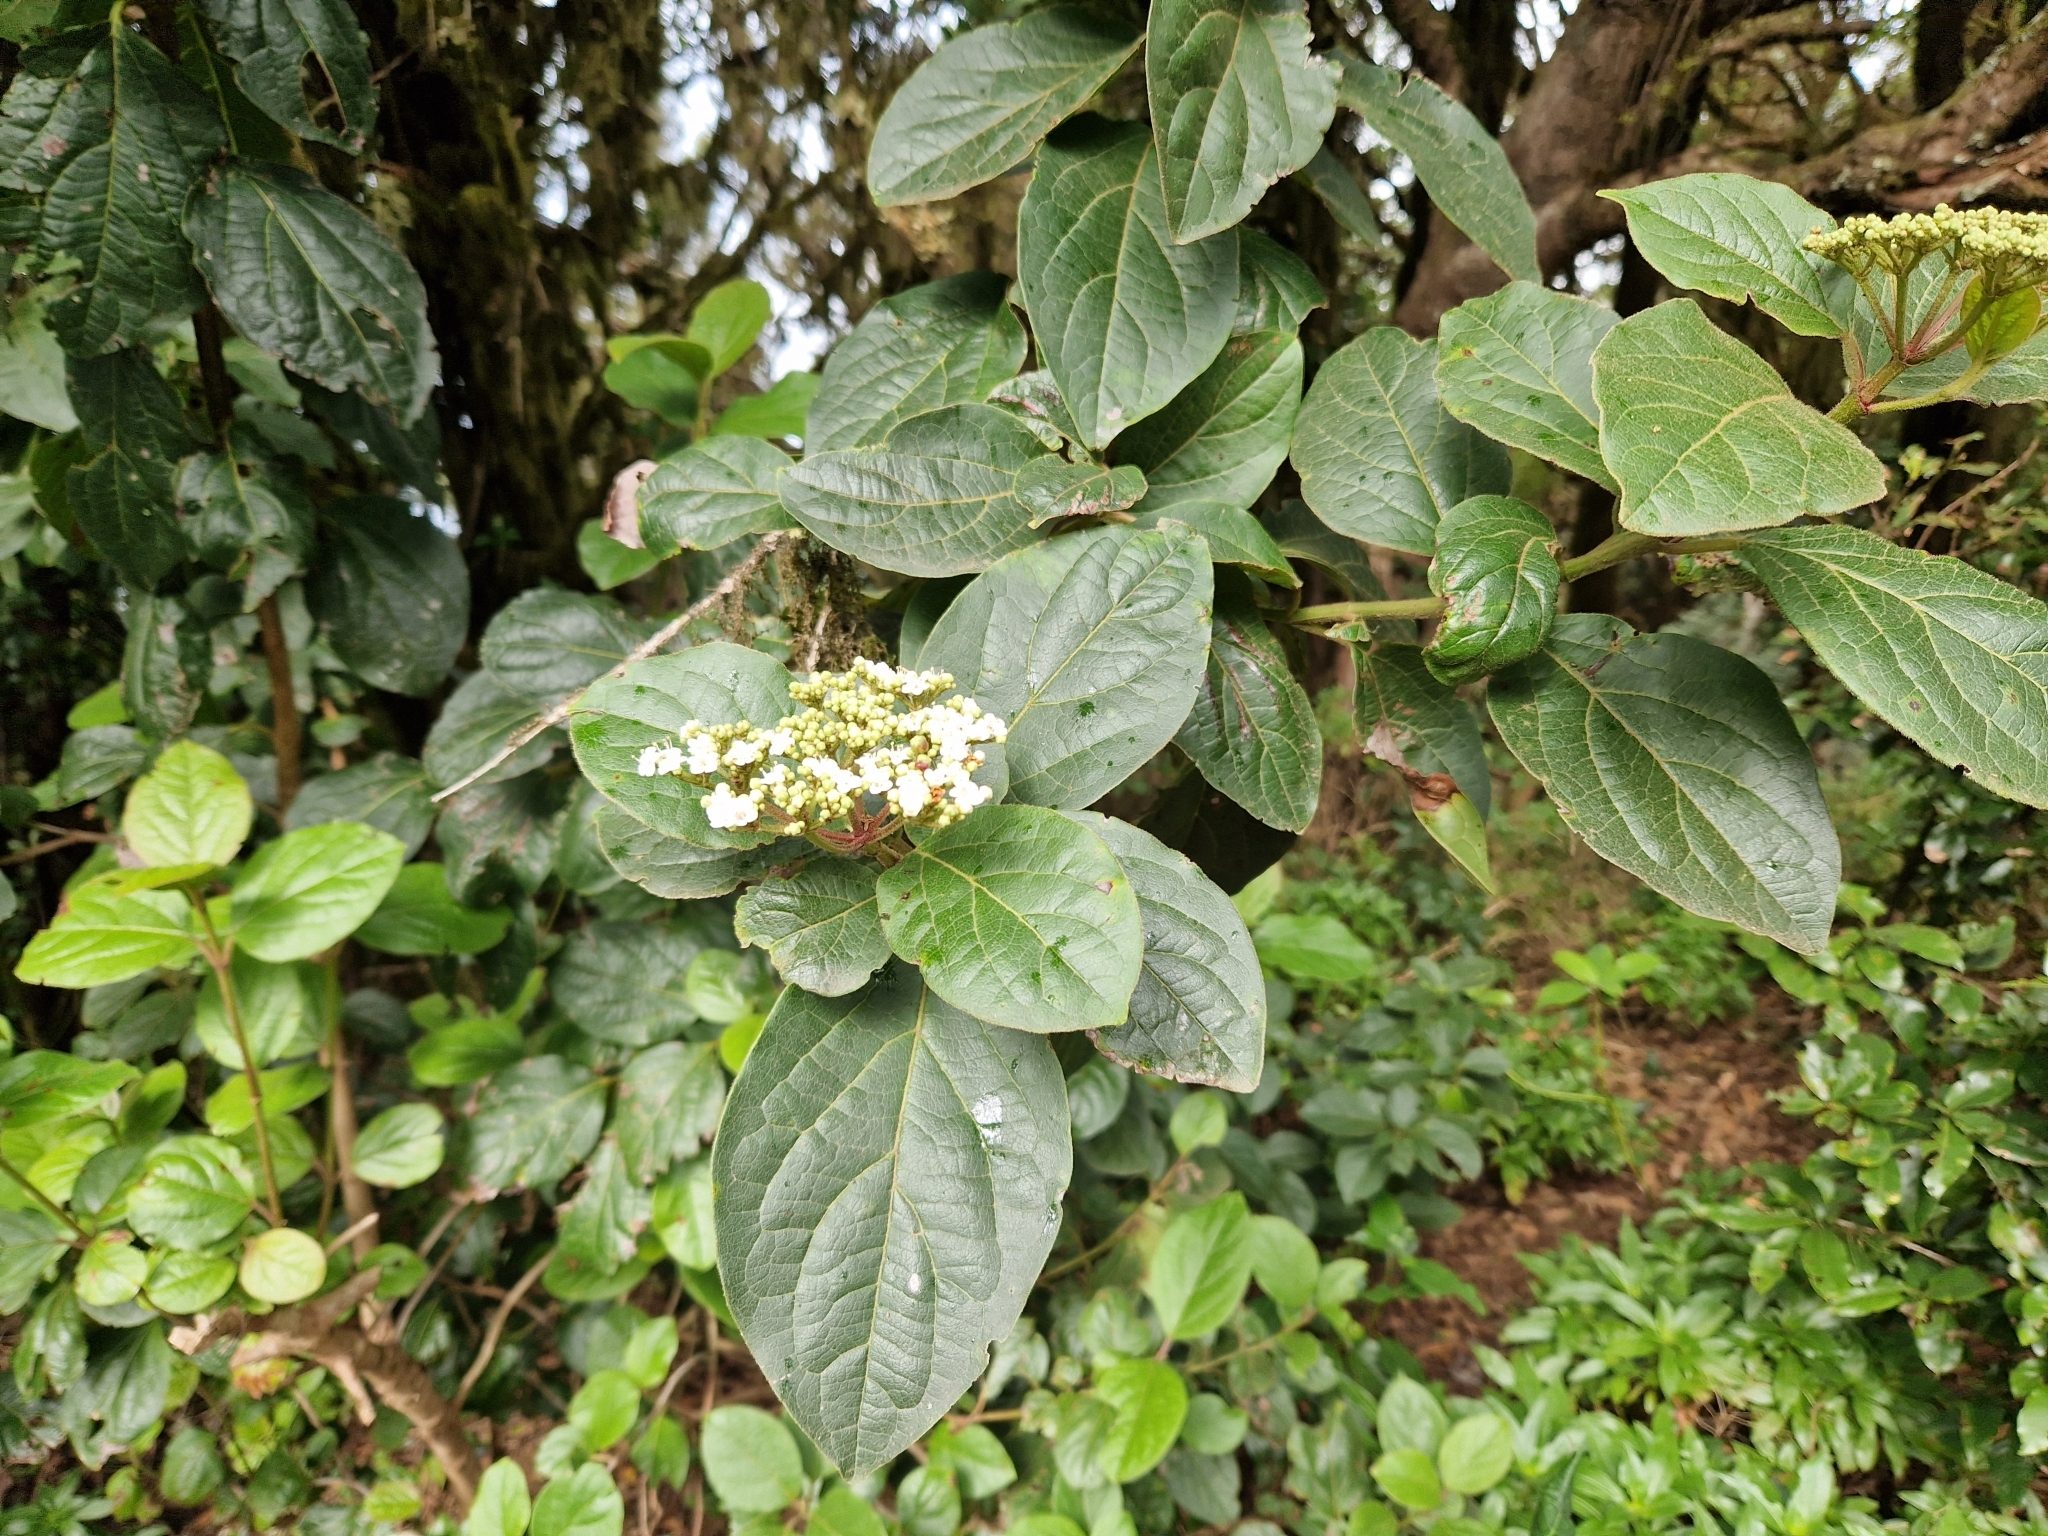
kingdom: Plantae
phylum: Tracheophyta
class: Magnoliopsida
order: Dipsacales
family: Viburnaceae
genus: Viburnum
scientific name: Viburnum rugosum
